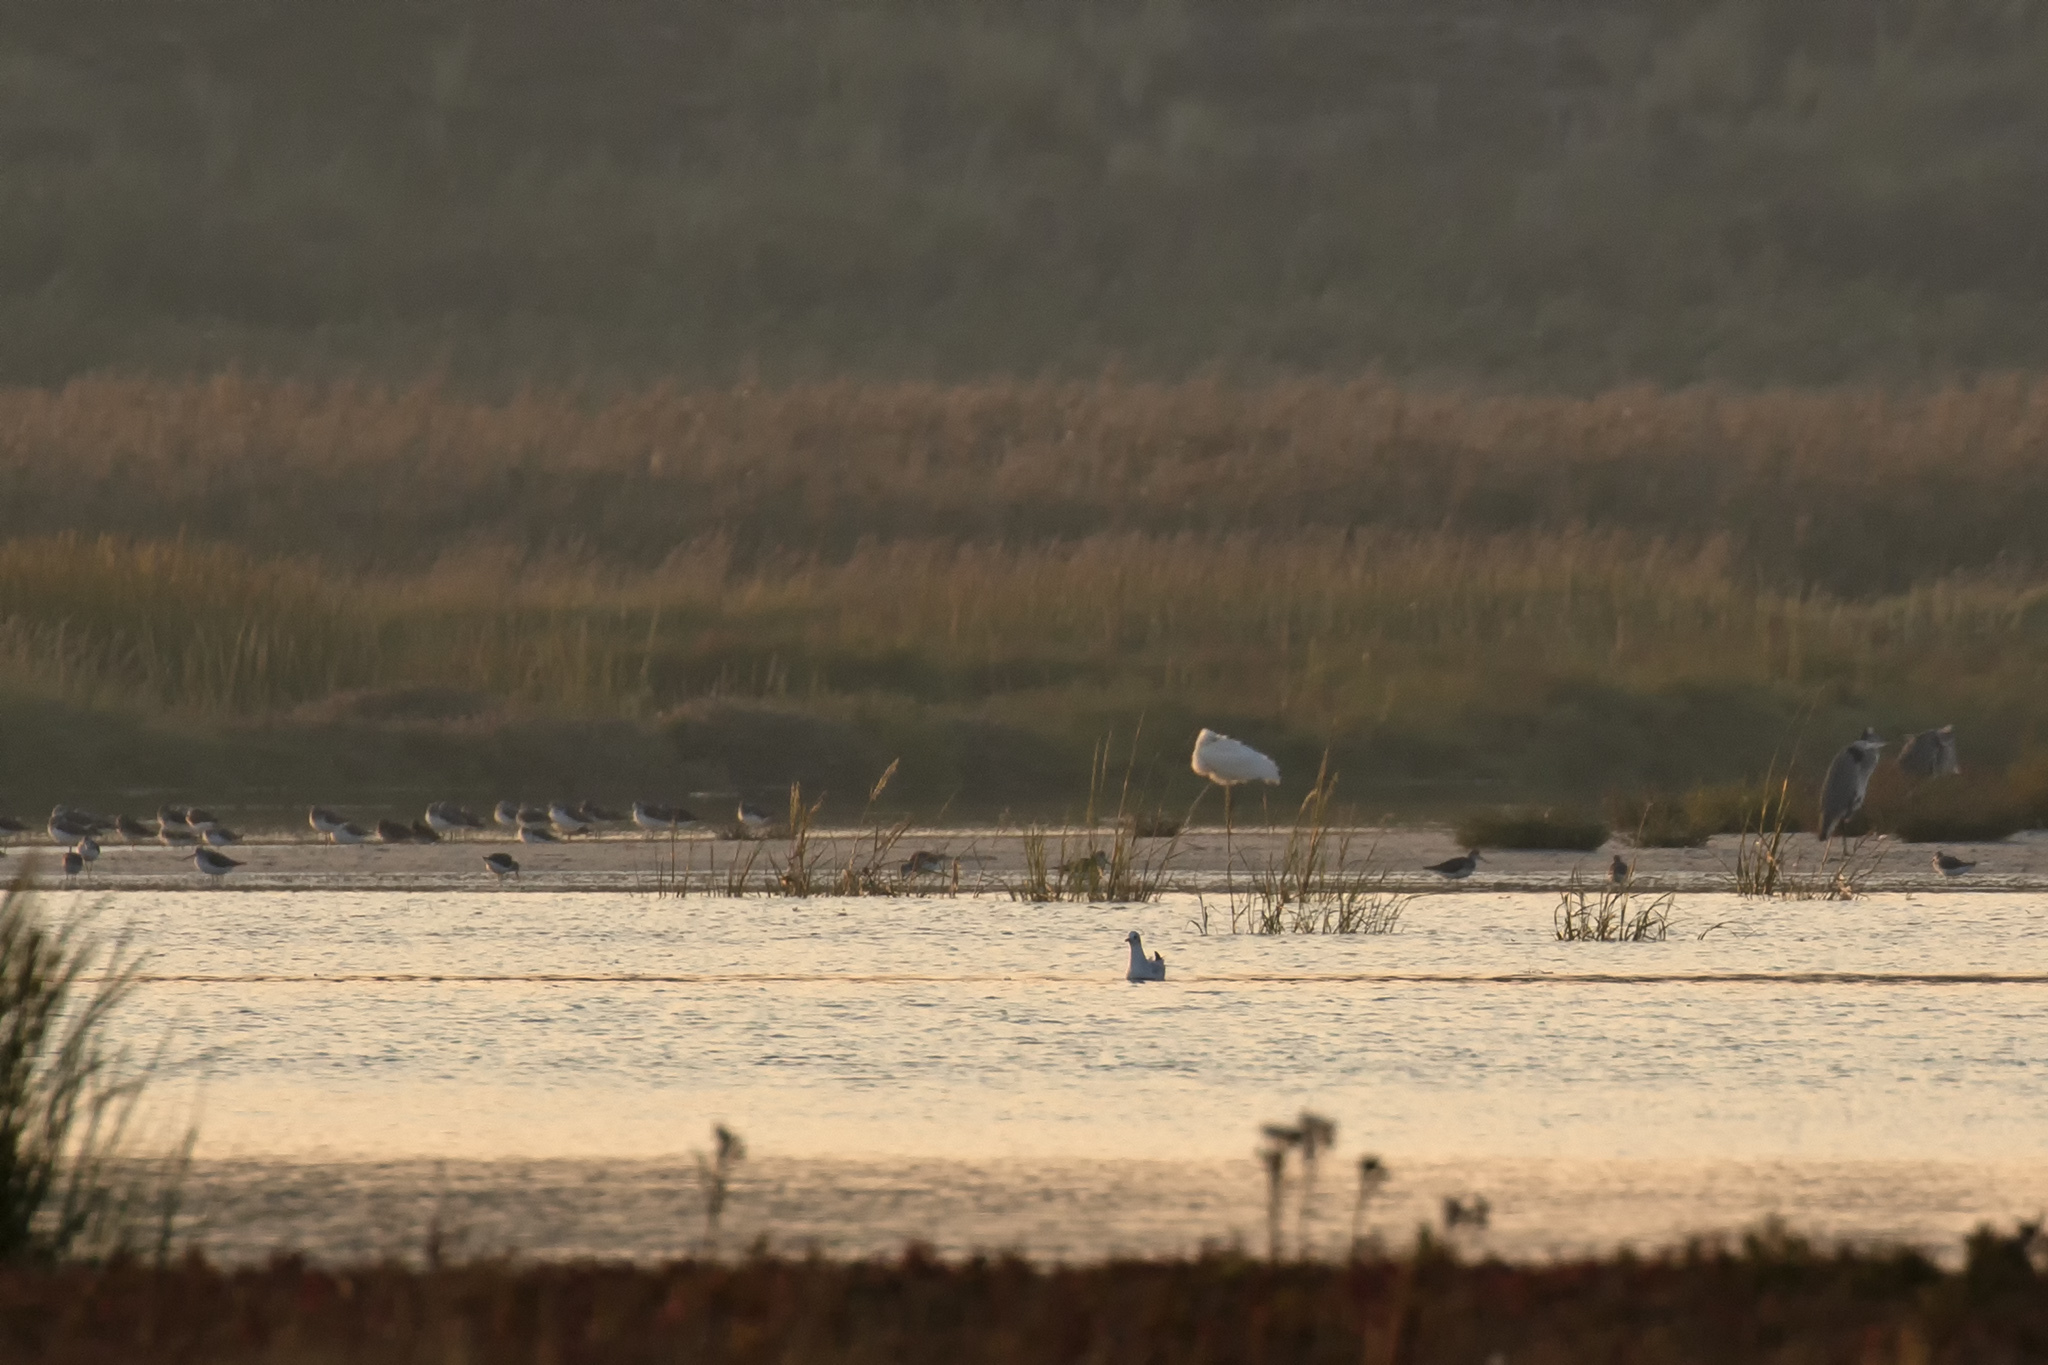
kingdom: Animalia
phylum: Chordata
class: Aves
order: Pelecaniformes
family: Threskiornithidae
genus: Platalea
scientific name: Platalea leucorodia
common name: Eurasian spoonbill
